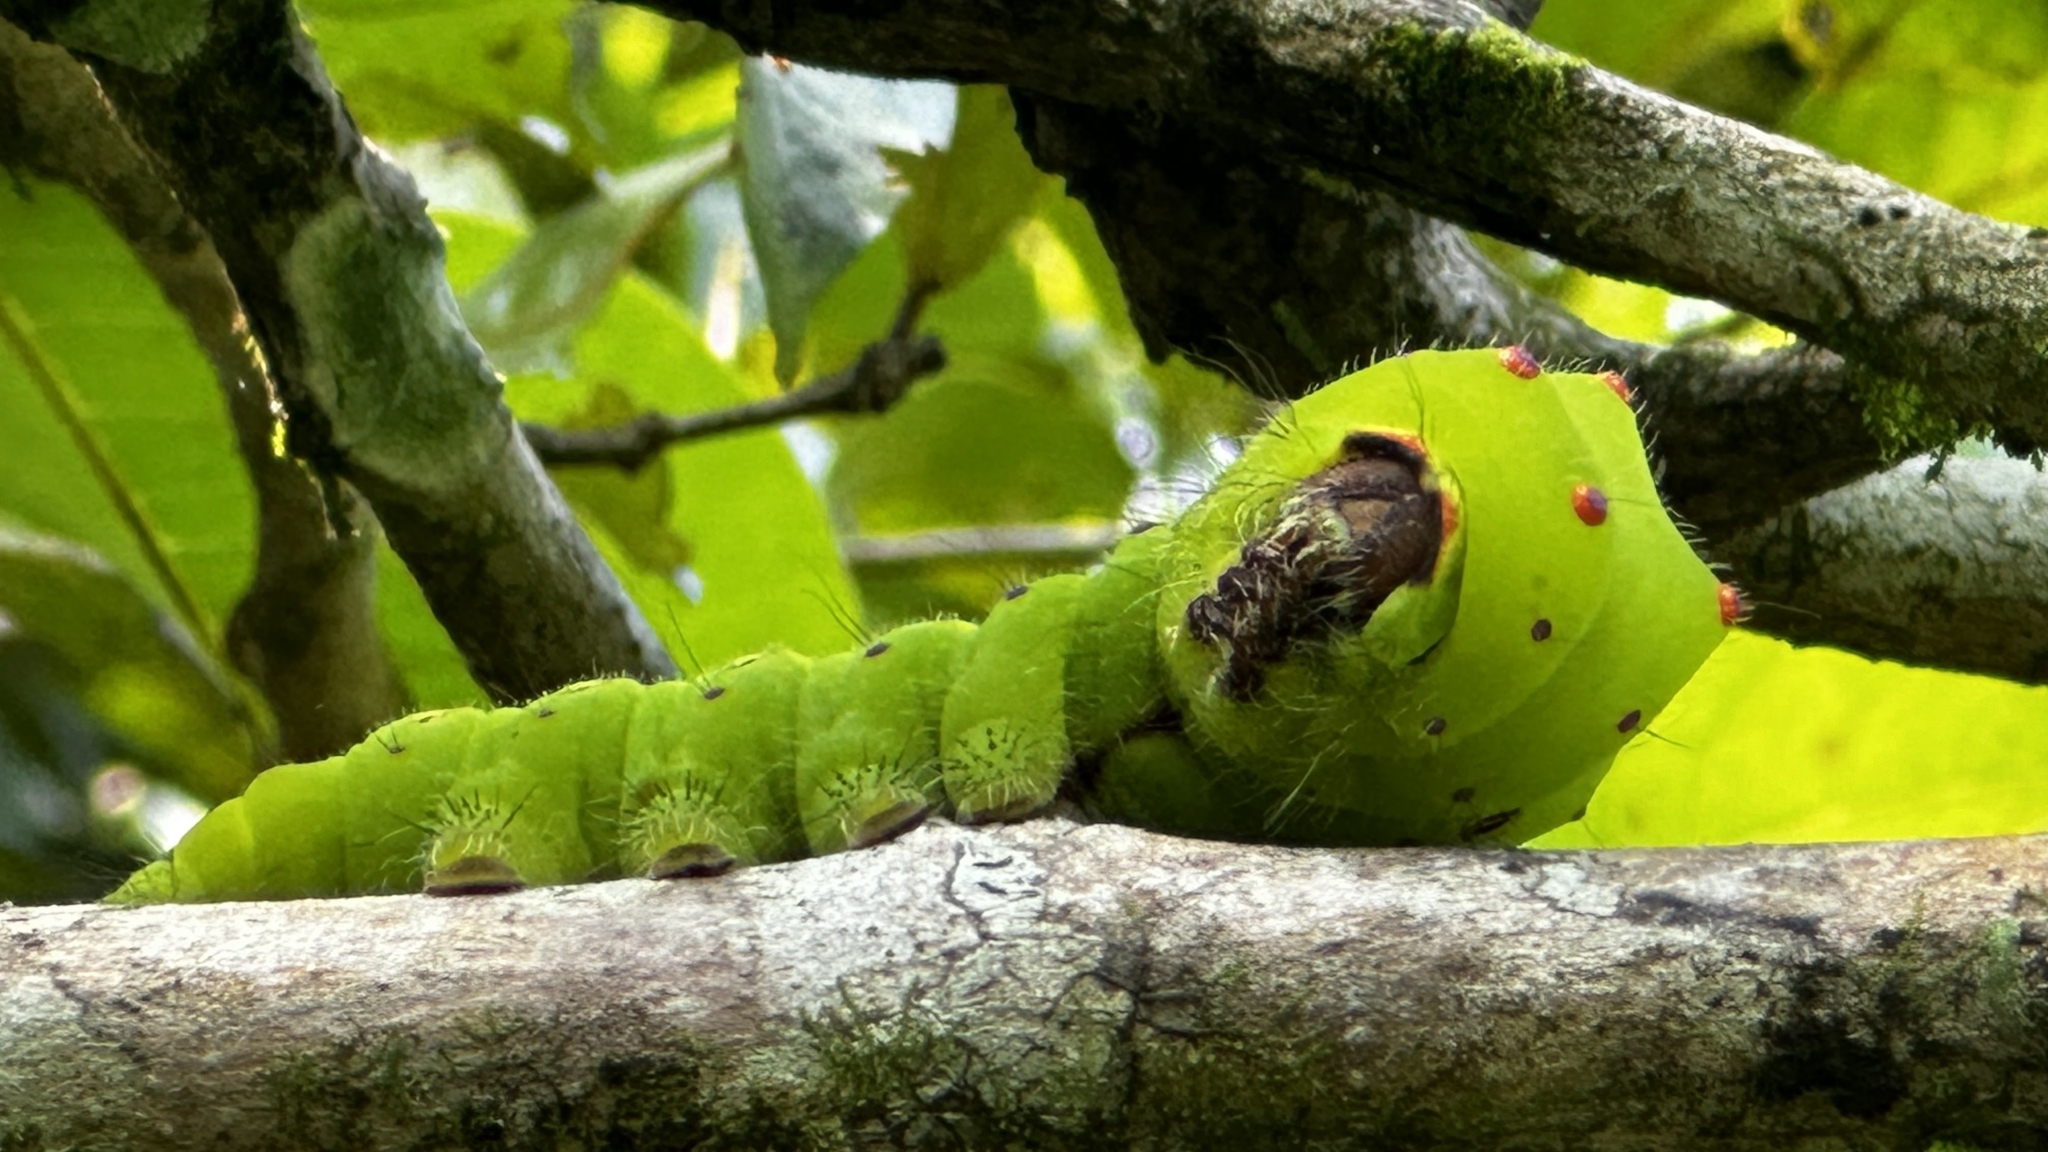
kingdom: Animalia
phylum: Arthropoda
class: Insecta
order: Lepidoptera
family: Saturniidae
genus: Actias
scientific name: Actias selene
